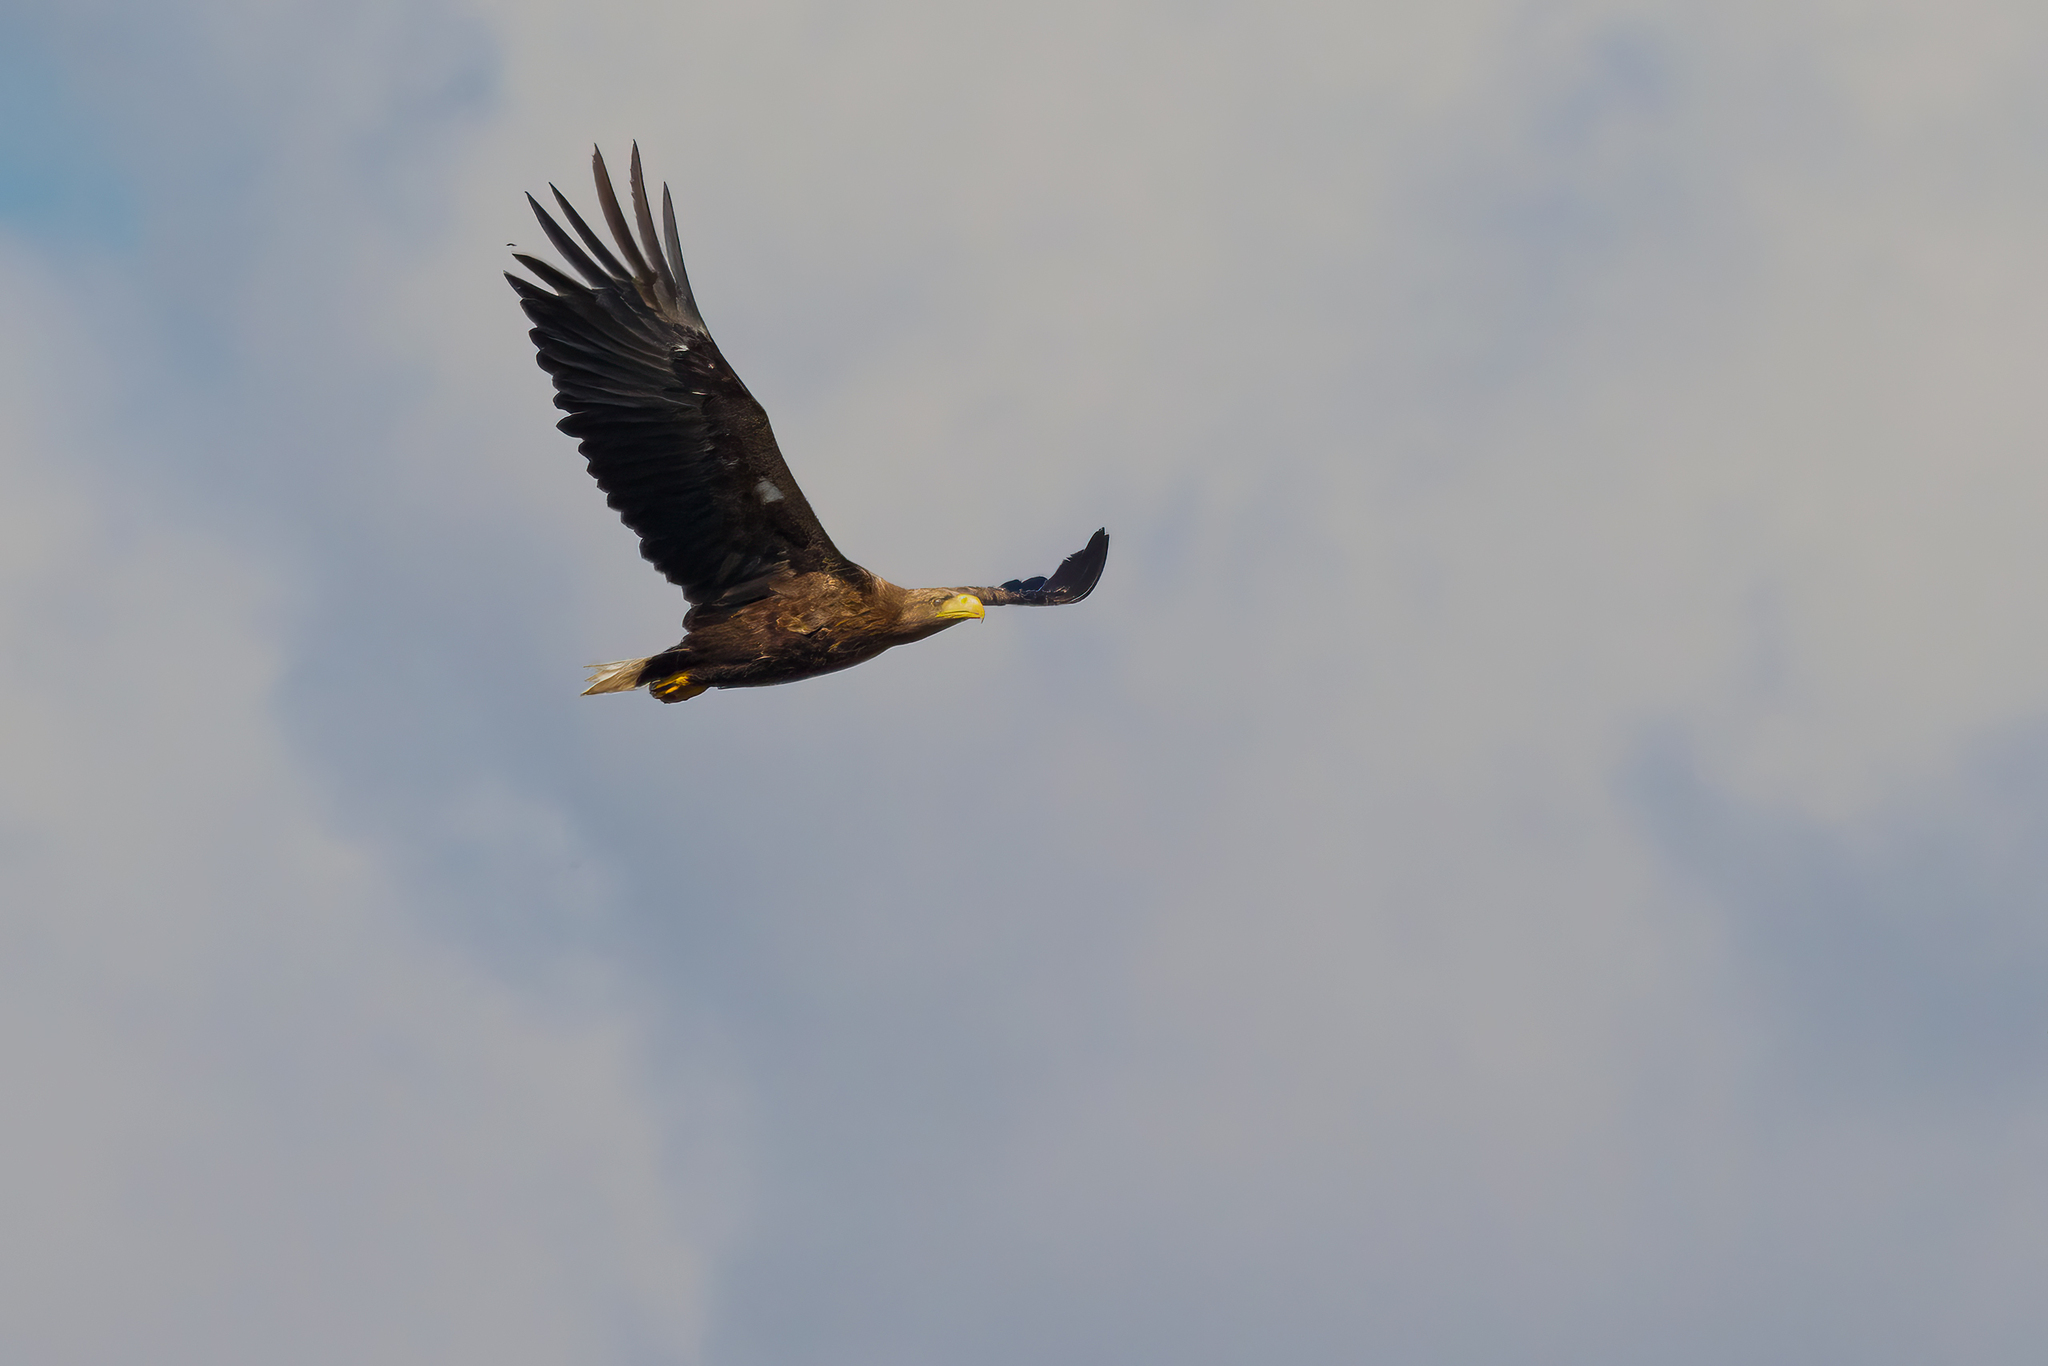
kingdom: Animalia
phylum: Chordata
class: Aves
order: Accipitriformes
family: Accipitridae
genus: Haliaeetus
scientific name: Haliaeetus albicilla
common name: White-tailed eagle
